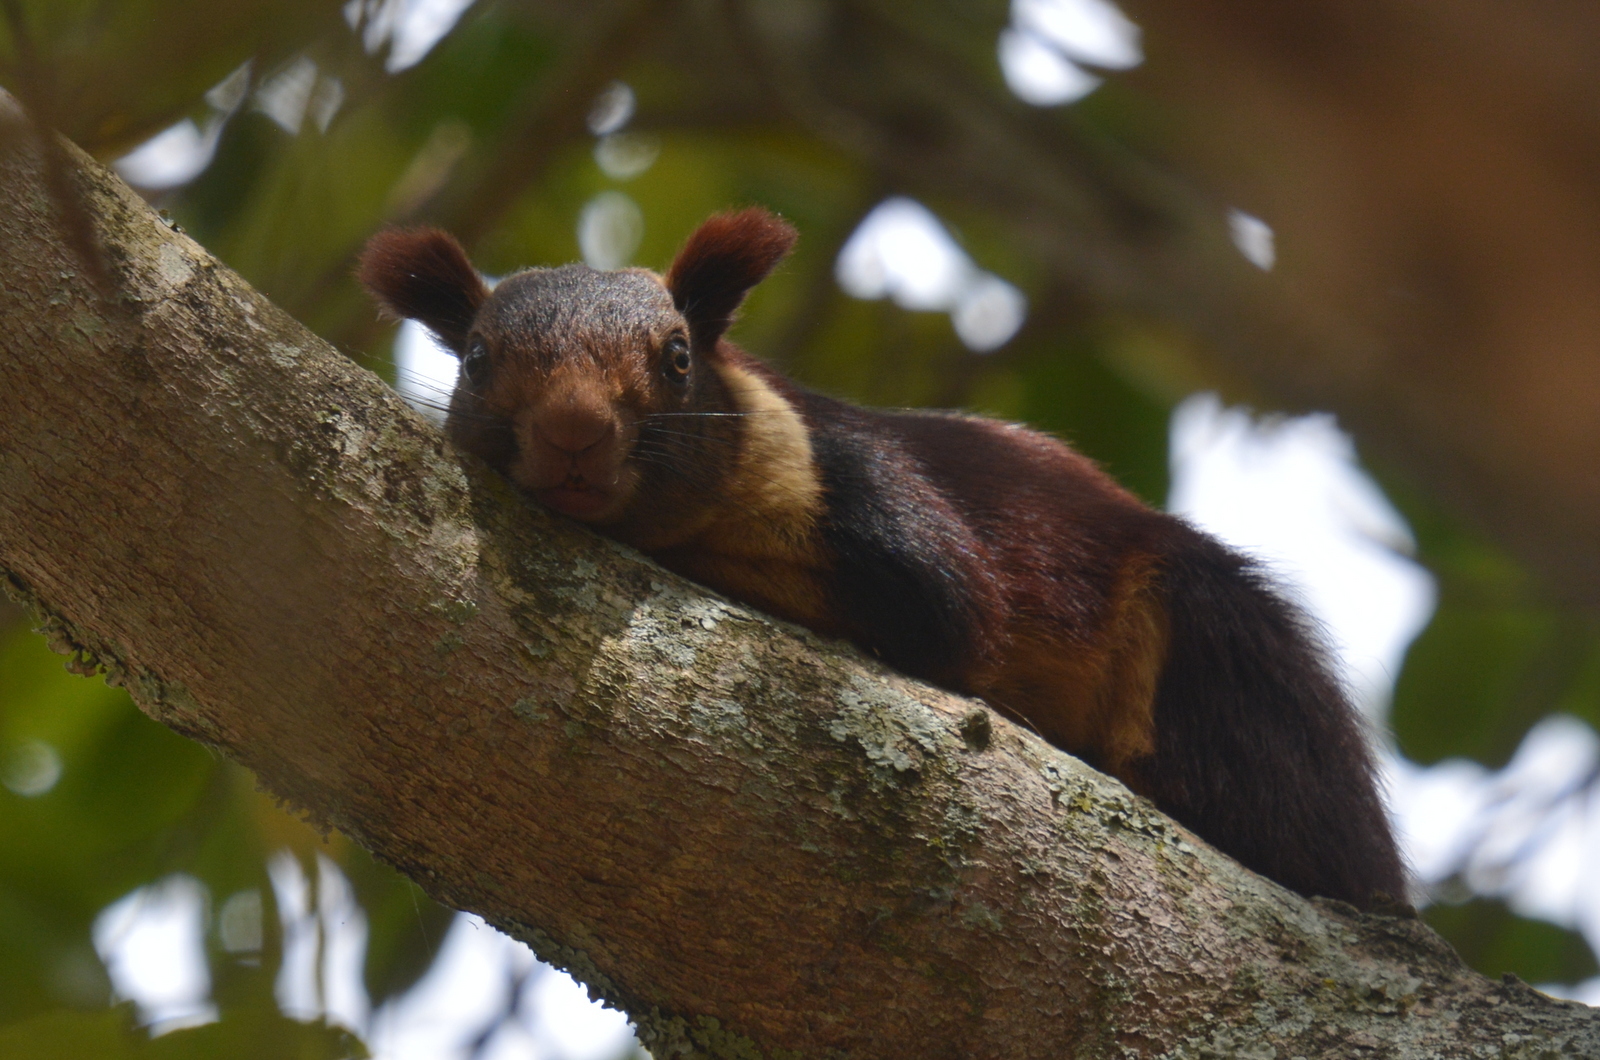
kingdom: Animalia
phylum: Chordata
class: Mammalia
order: Rodentia
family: Sciuridae
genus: Ratufa
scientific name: Ratufa indica
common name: Indian giant squirrel
